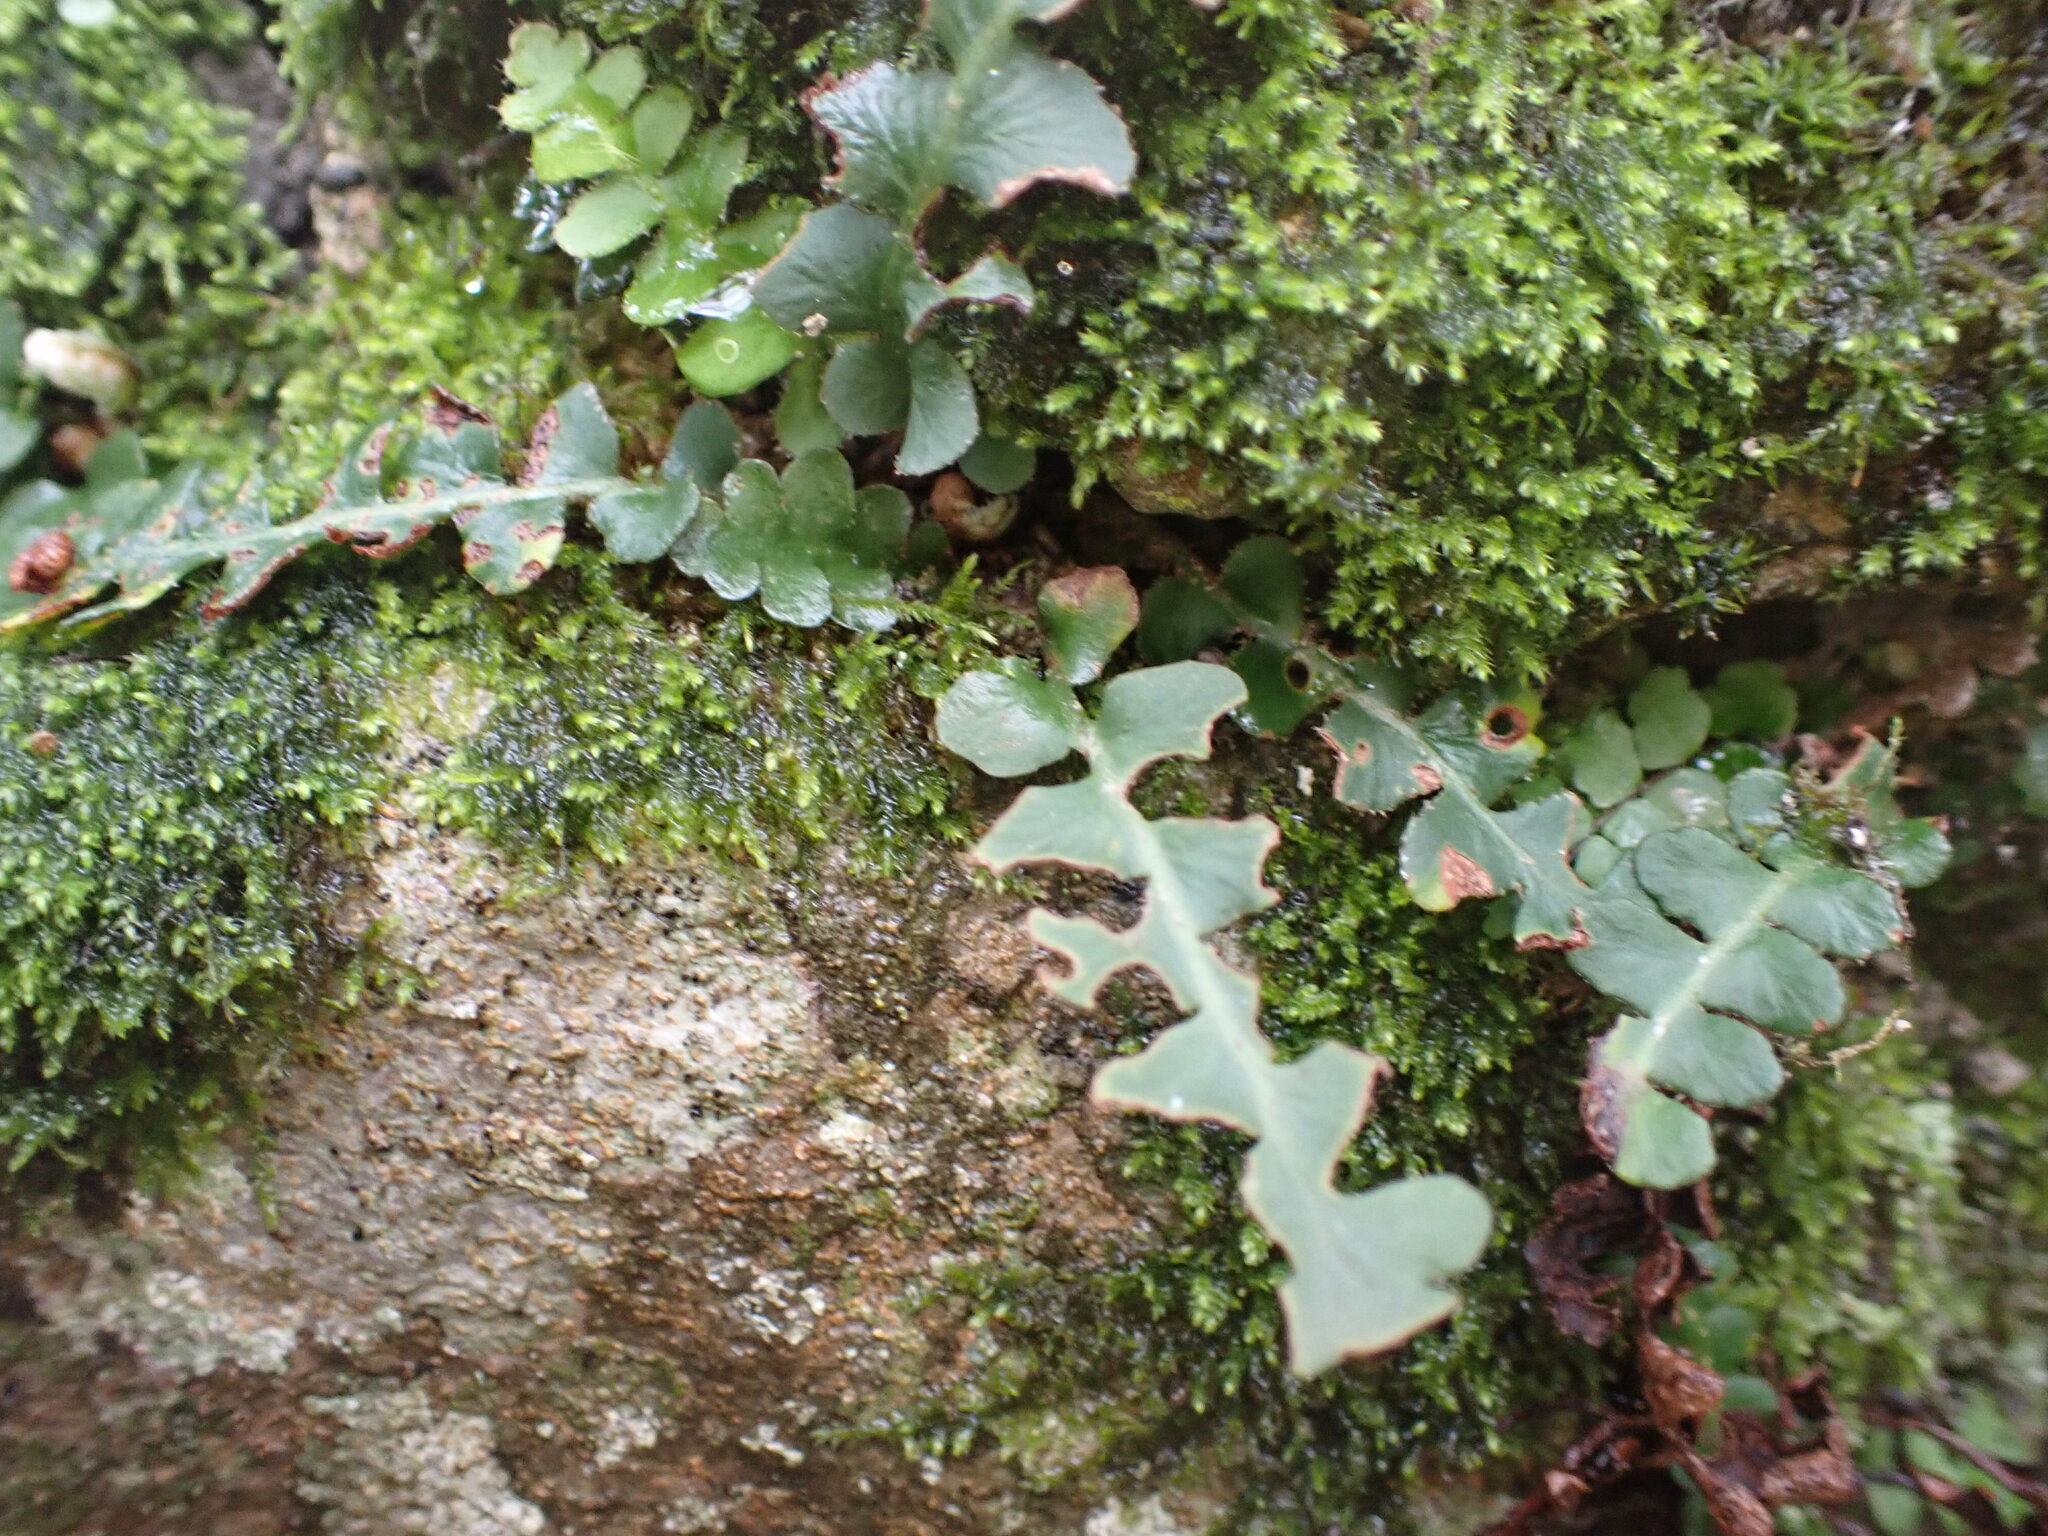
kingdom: Plantae
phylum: Tracheophyta
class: Polypodiopsida
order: Polypodiales
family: Aspleniaceae
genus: Asplenium
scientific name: Asplenium ceterach
